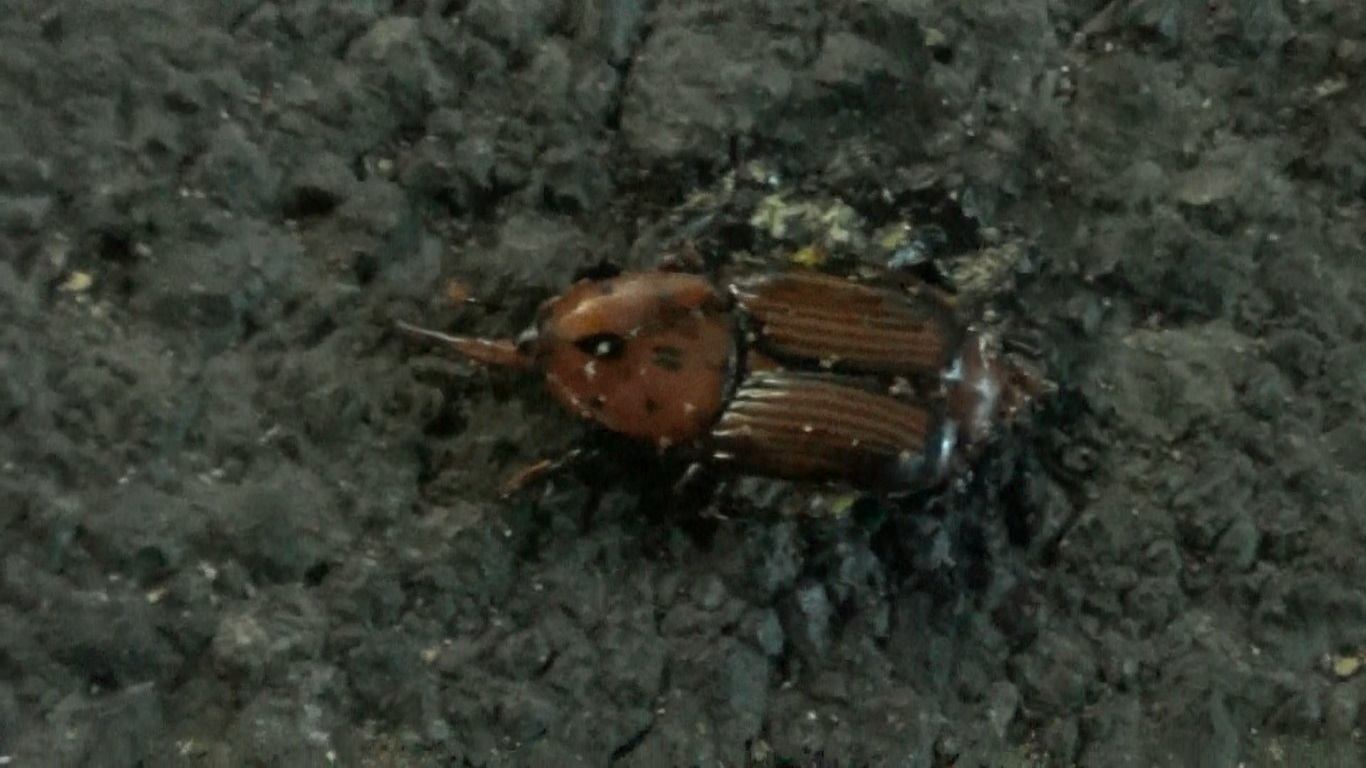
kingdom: Animalia
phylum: Arthropoda
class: Insecta
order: Coleoptera
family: Dryophthoridae
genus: Rhynchophorus
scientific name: Rhynchophorus ferrugineus
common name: Red palm weevil
